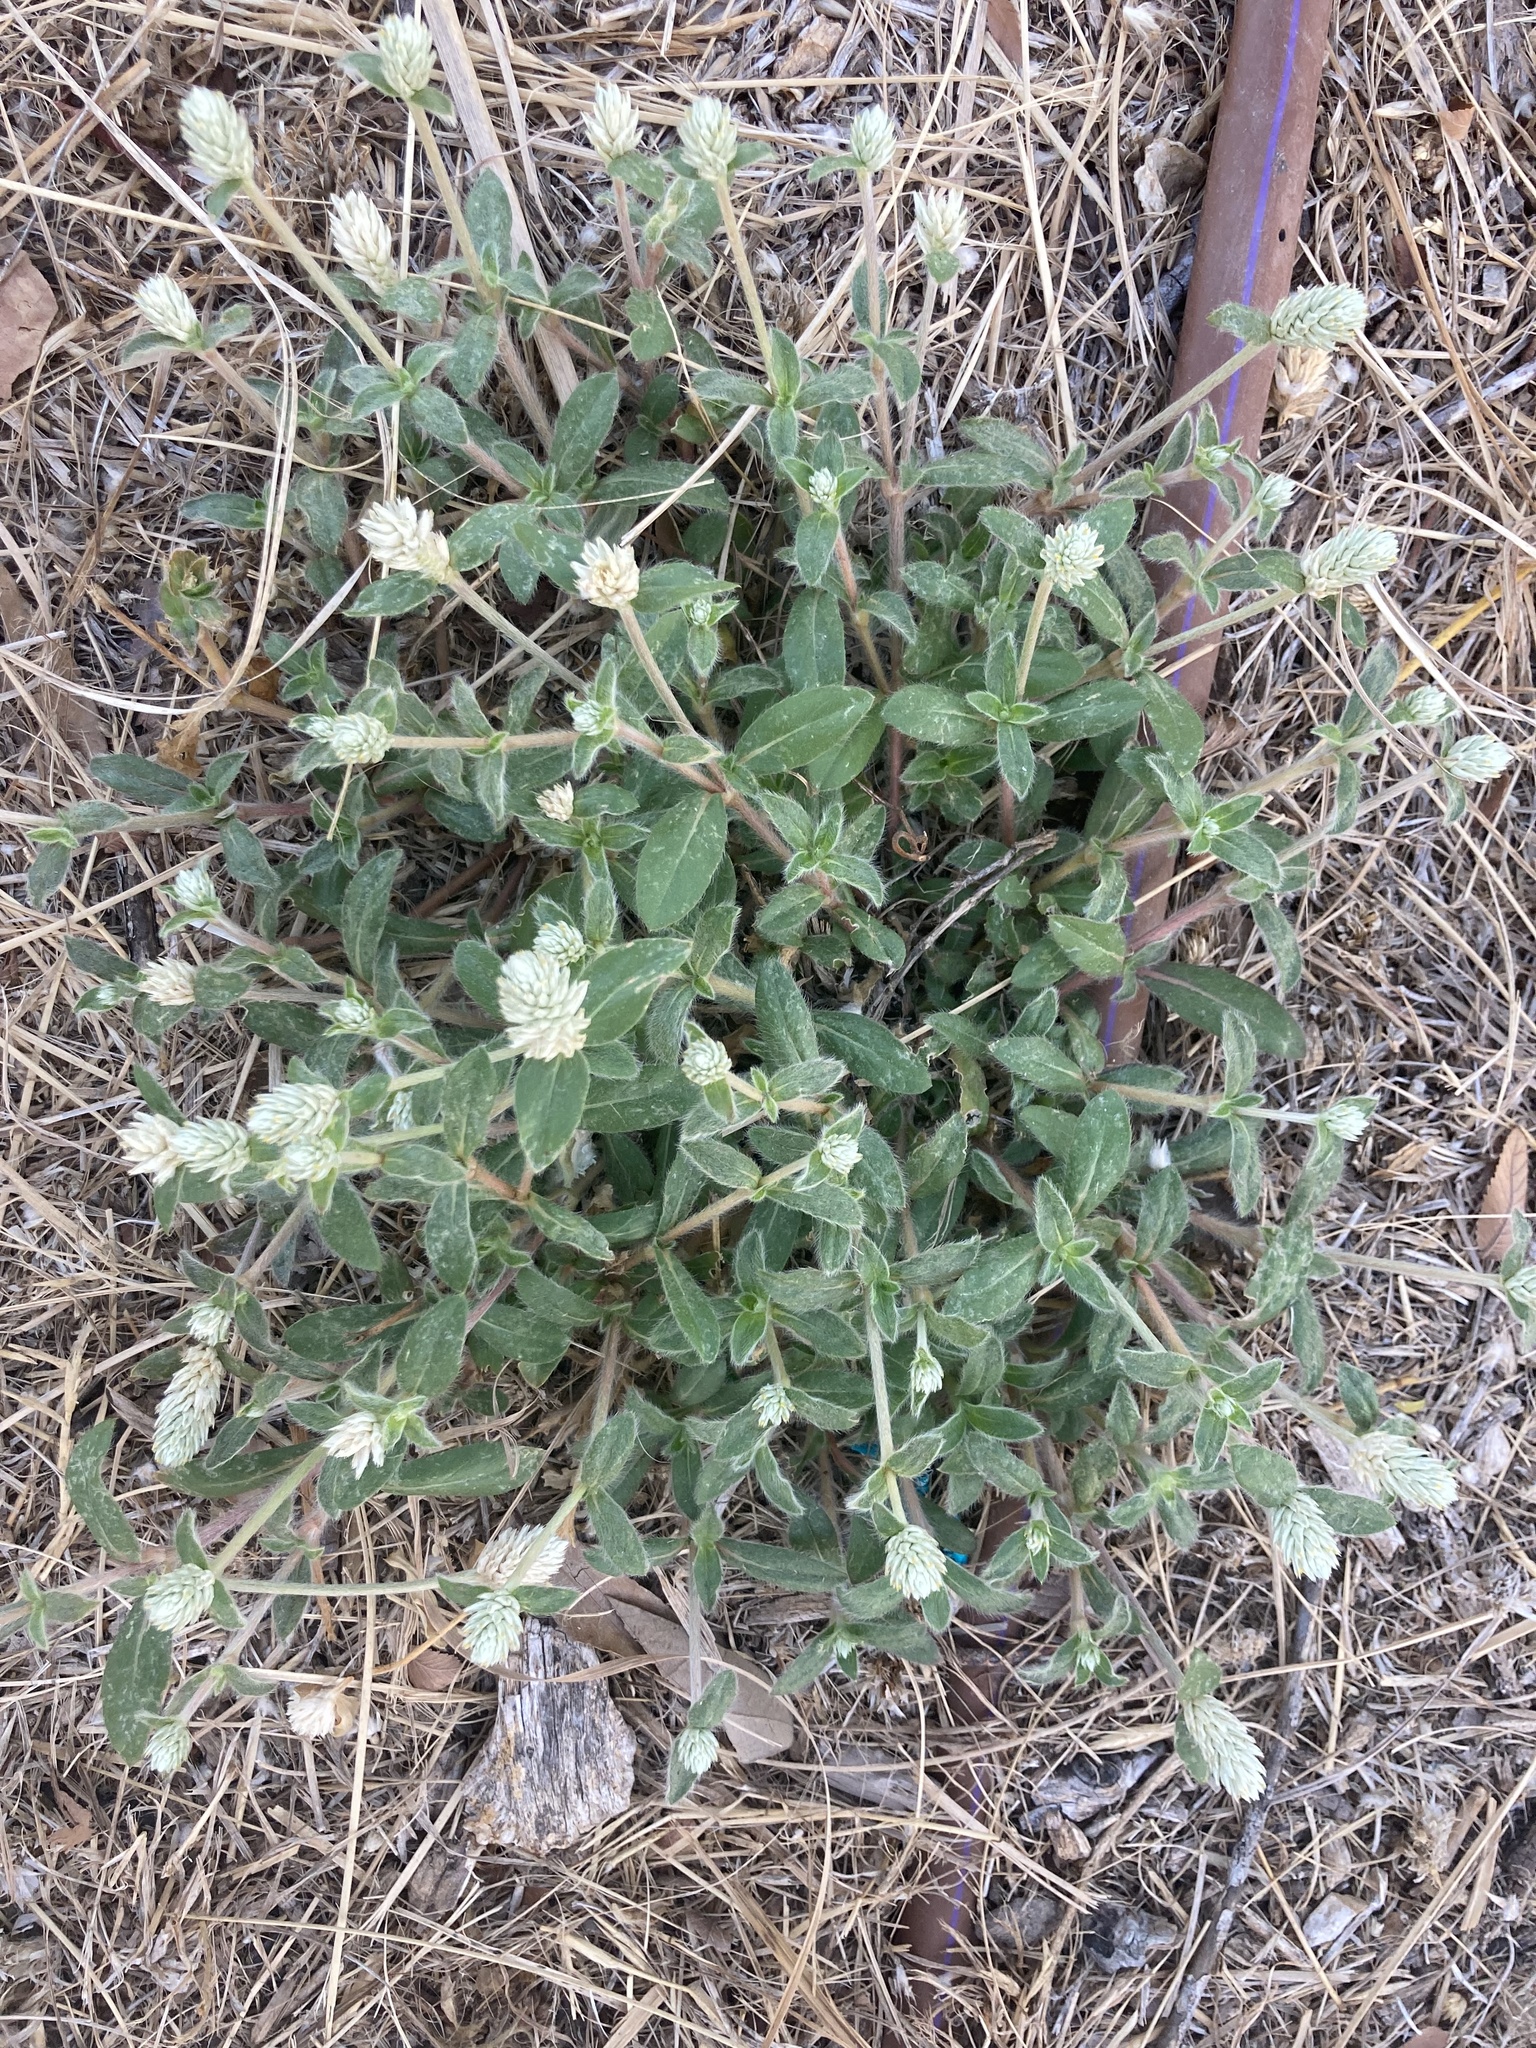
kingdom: Plantae
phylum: Tracheophyta
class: Magnoliopsida
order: Caryophyllales
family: Amaranthaceae
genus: Gomphrena
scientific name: Gomphrena serrata
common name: Arrasa con todo
